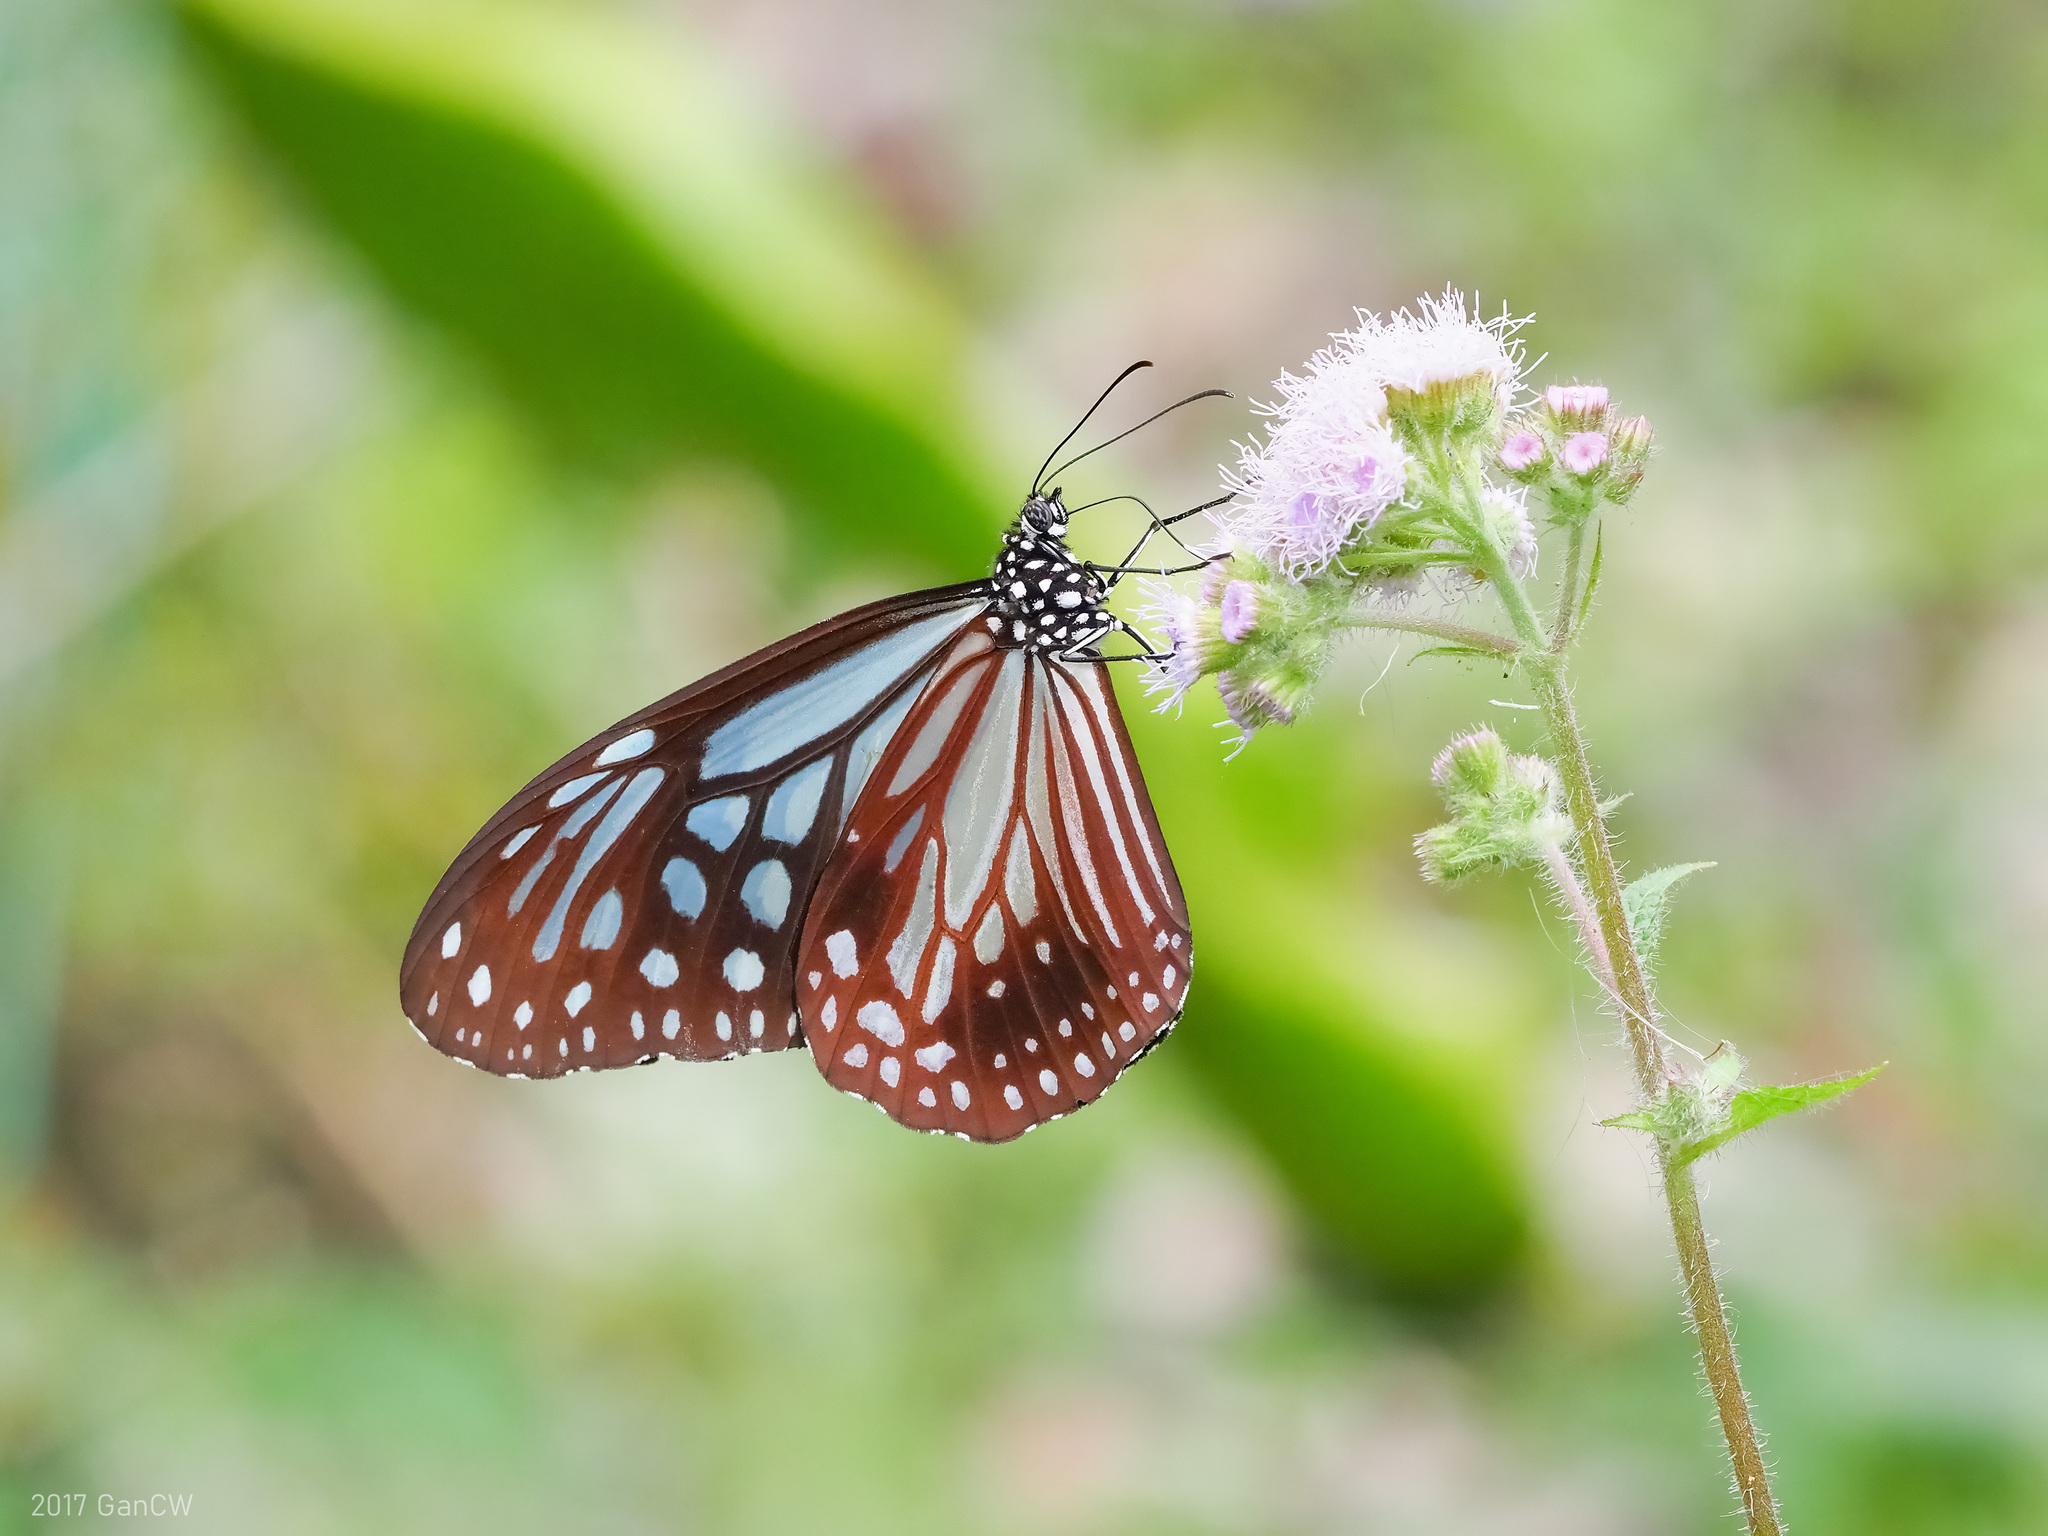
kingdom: Animalia
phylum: Arthropoda
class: Insecta
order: Lepidoptera
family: Nymphalidae
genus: Parantica
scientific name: Parantica melaneus
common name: Chocolate tiger
